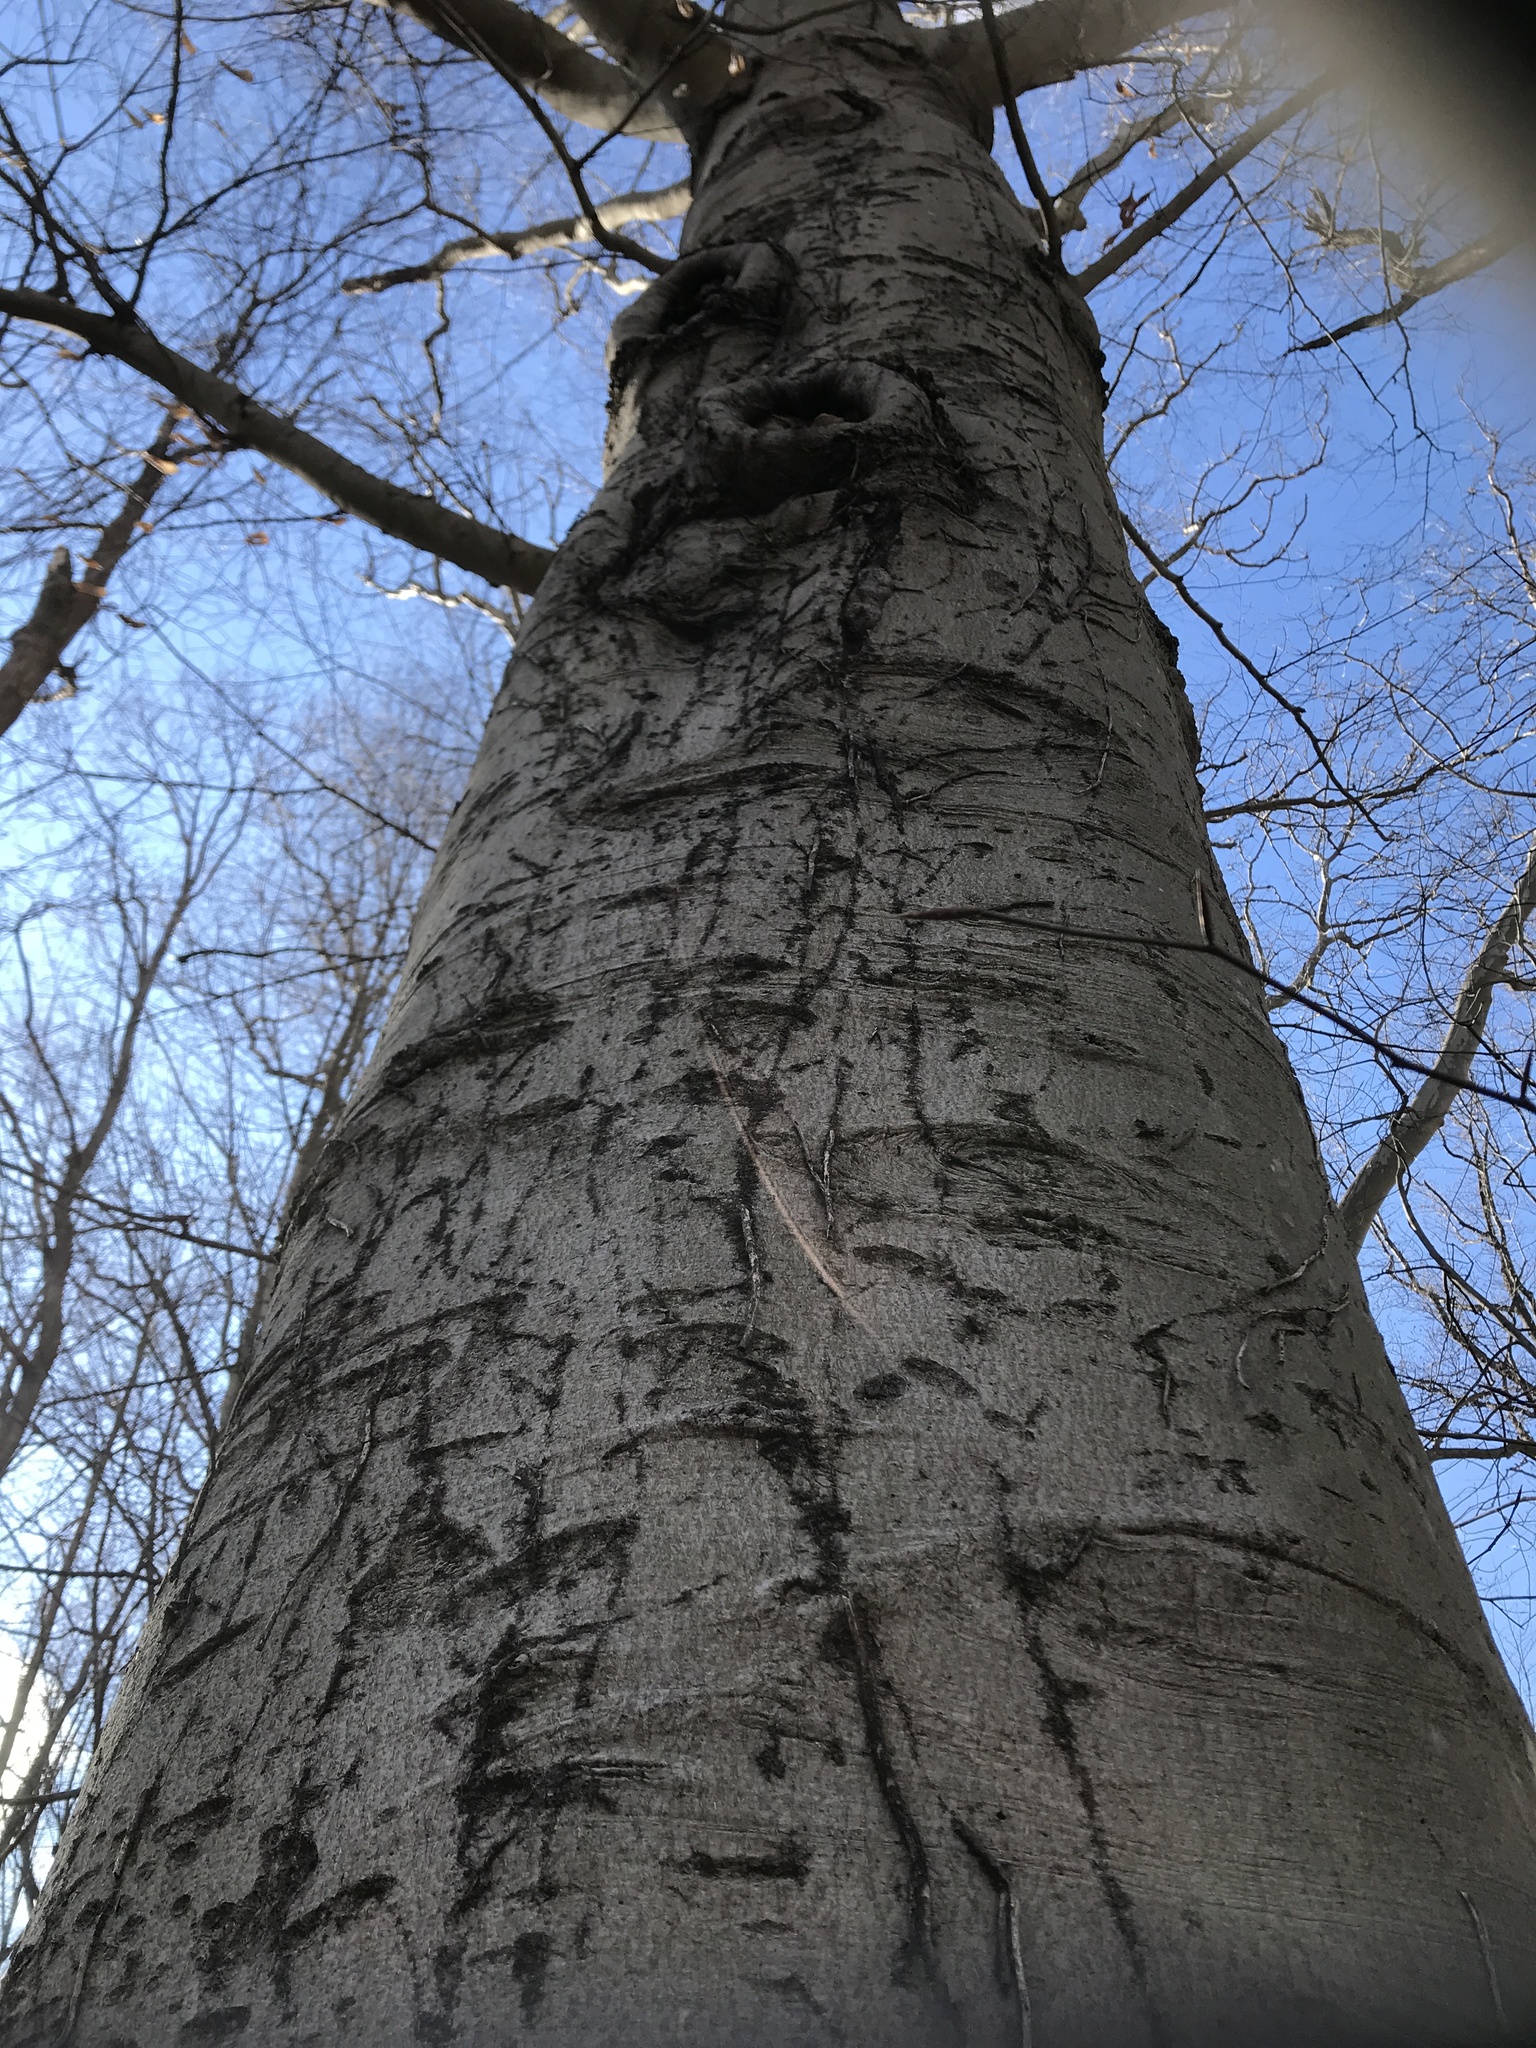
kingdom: Plantae
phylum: Tracheophyta
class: Magnoliopsida
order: Fagales
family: Fagaceae
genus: Fagus
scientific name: Fagus grandifolia
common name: American beech
